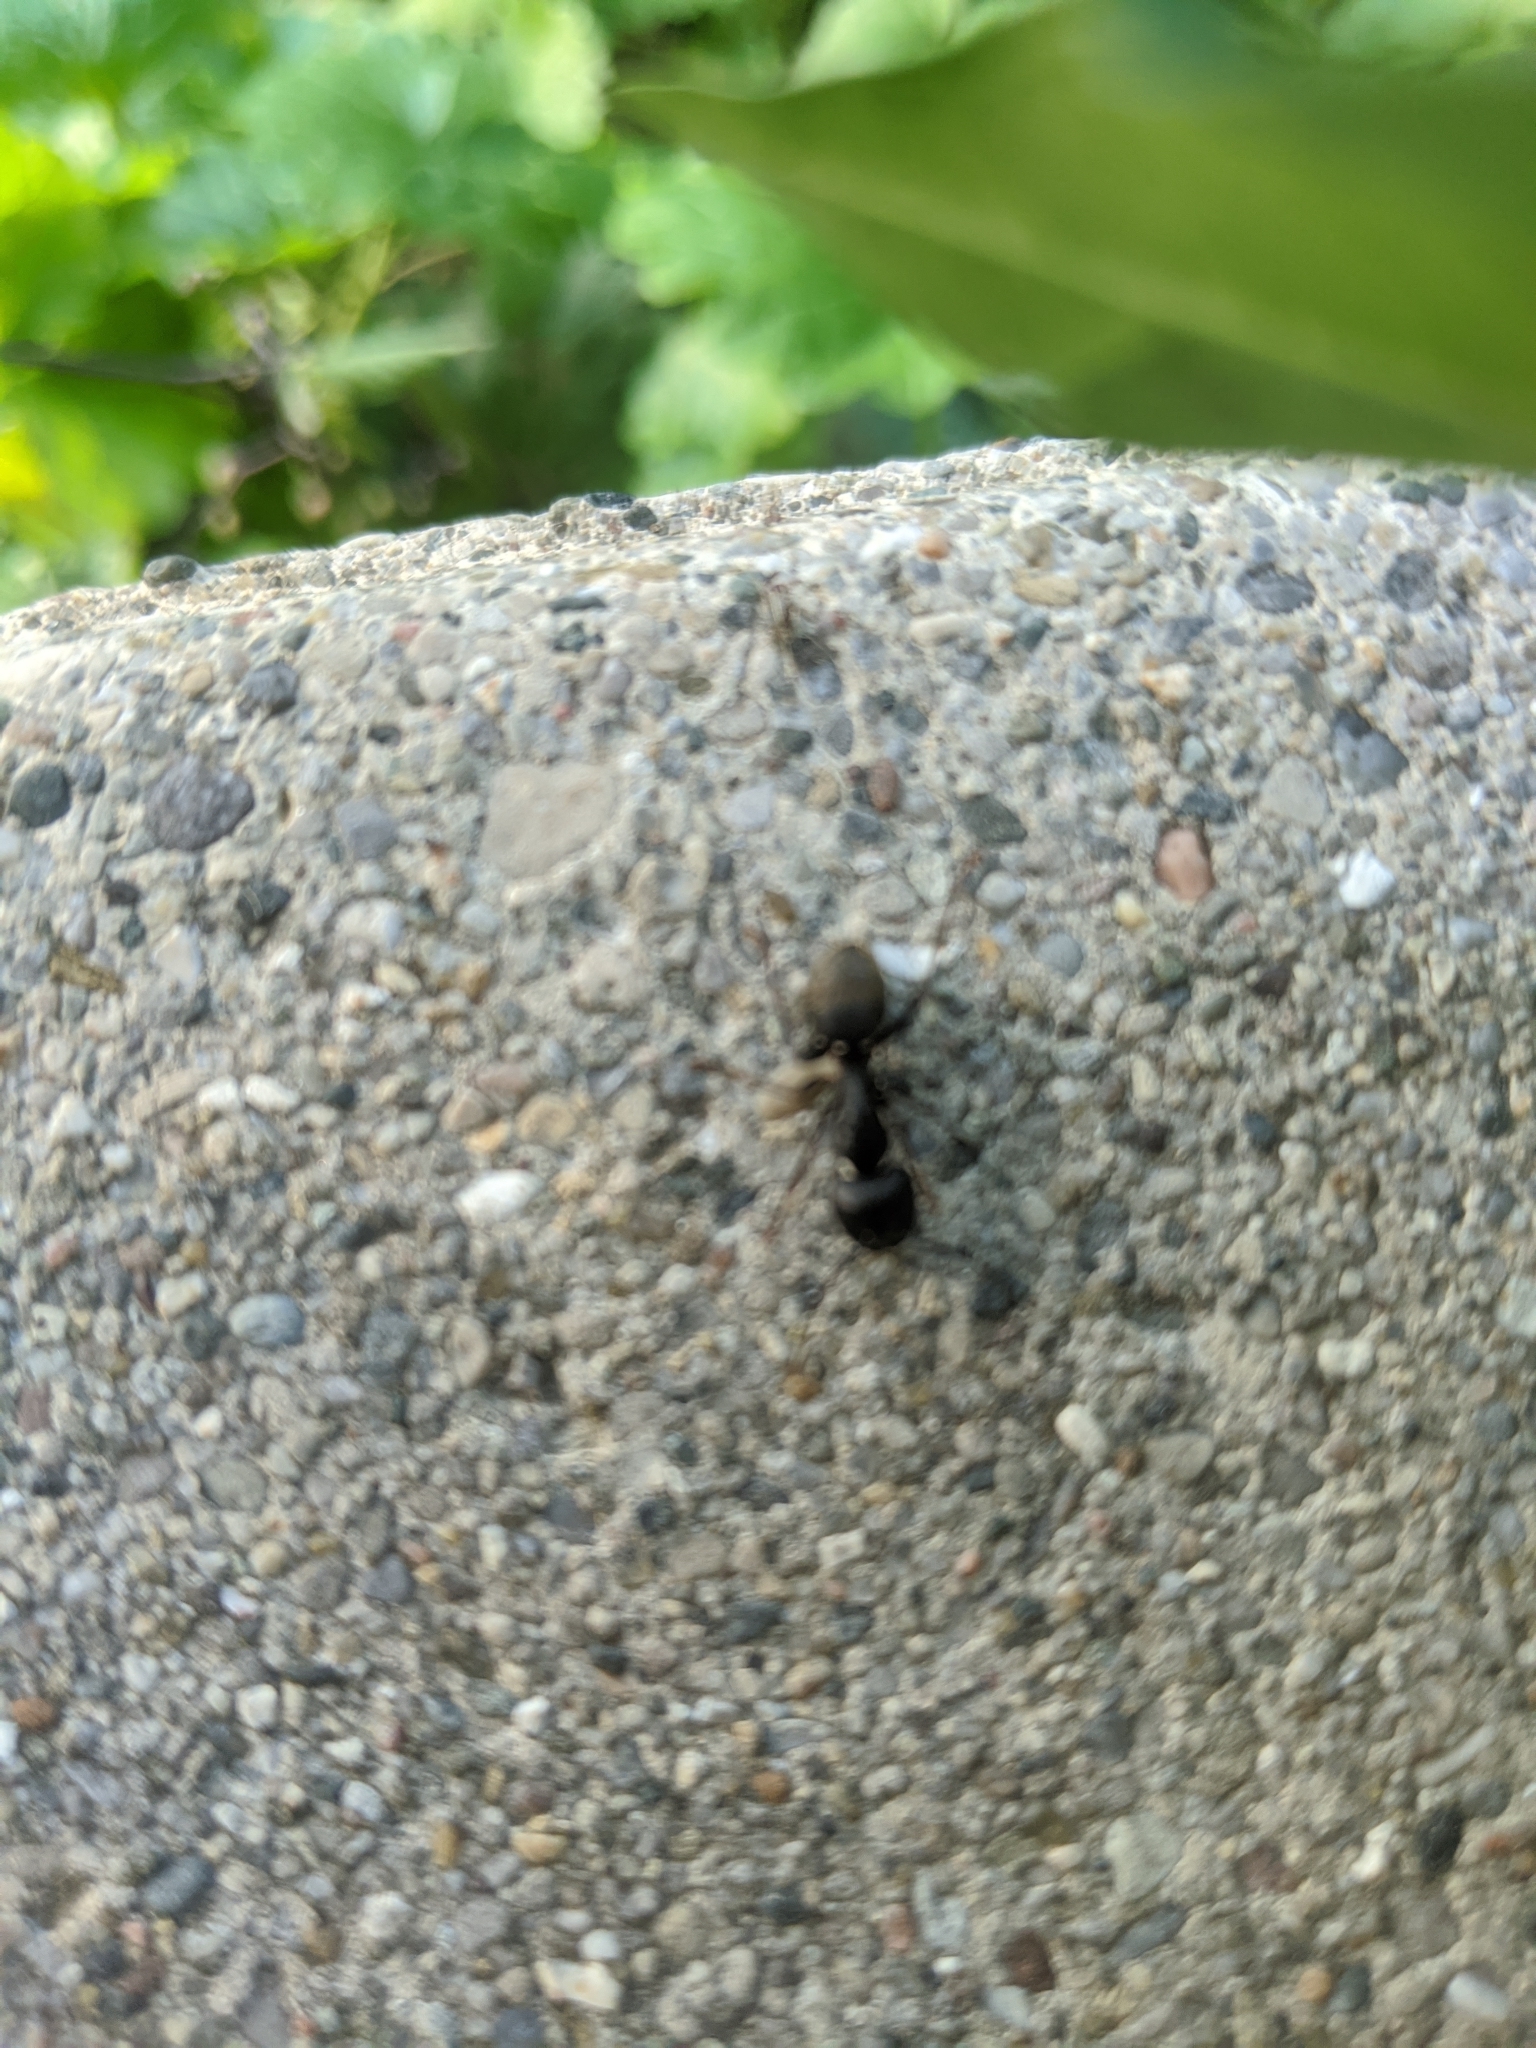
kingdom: Animalia
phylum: Arthropoda
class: Insecta
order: Hymenoptera
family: Formicidae
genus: Camponotus
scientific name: Camponotus pennsylvanicus
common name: Black carpenter ant
